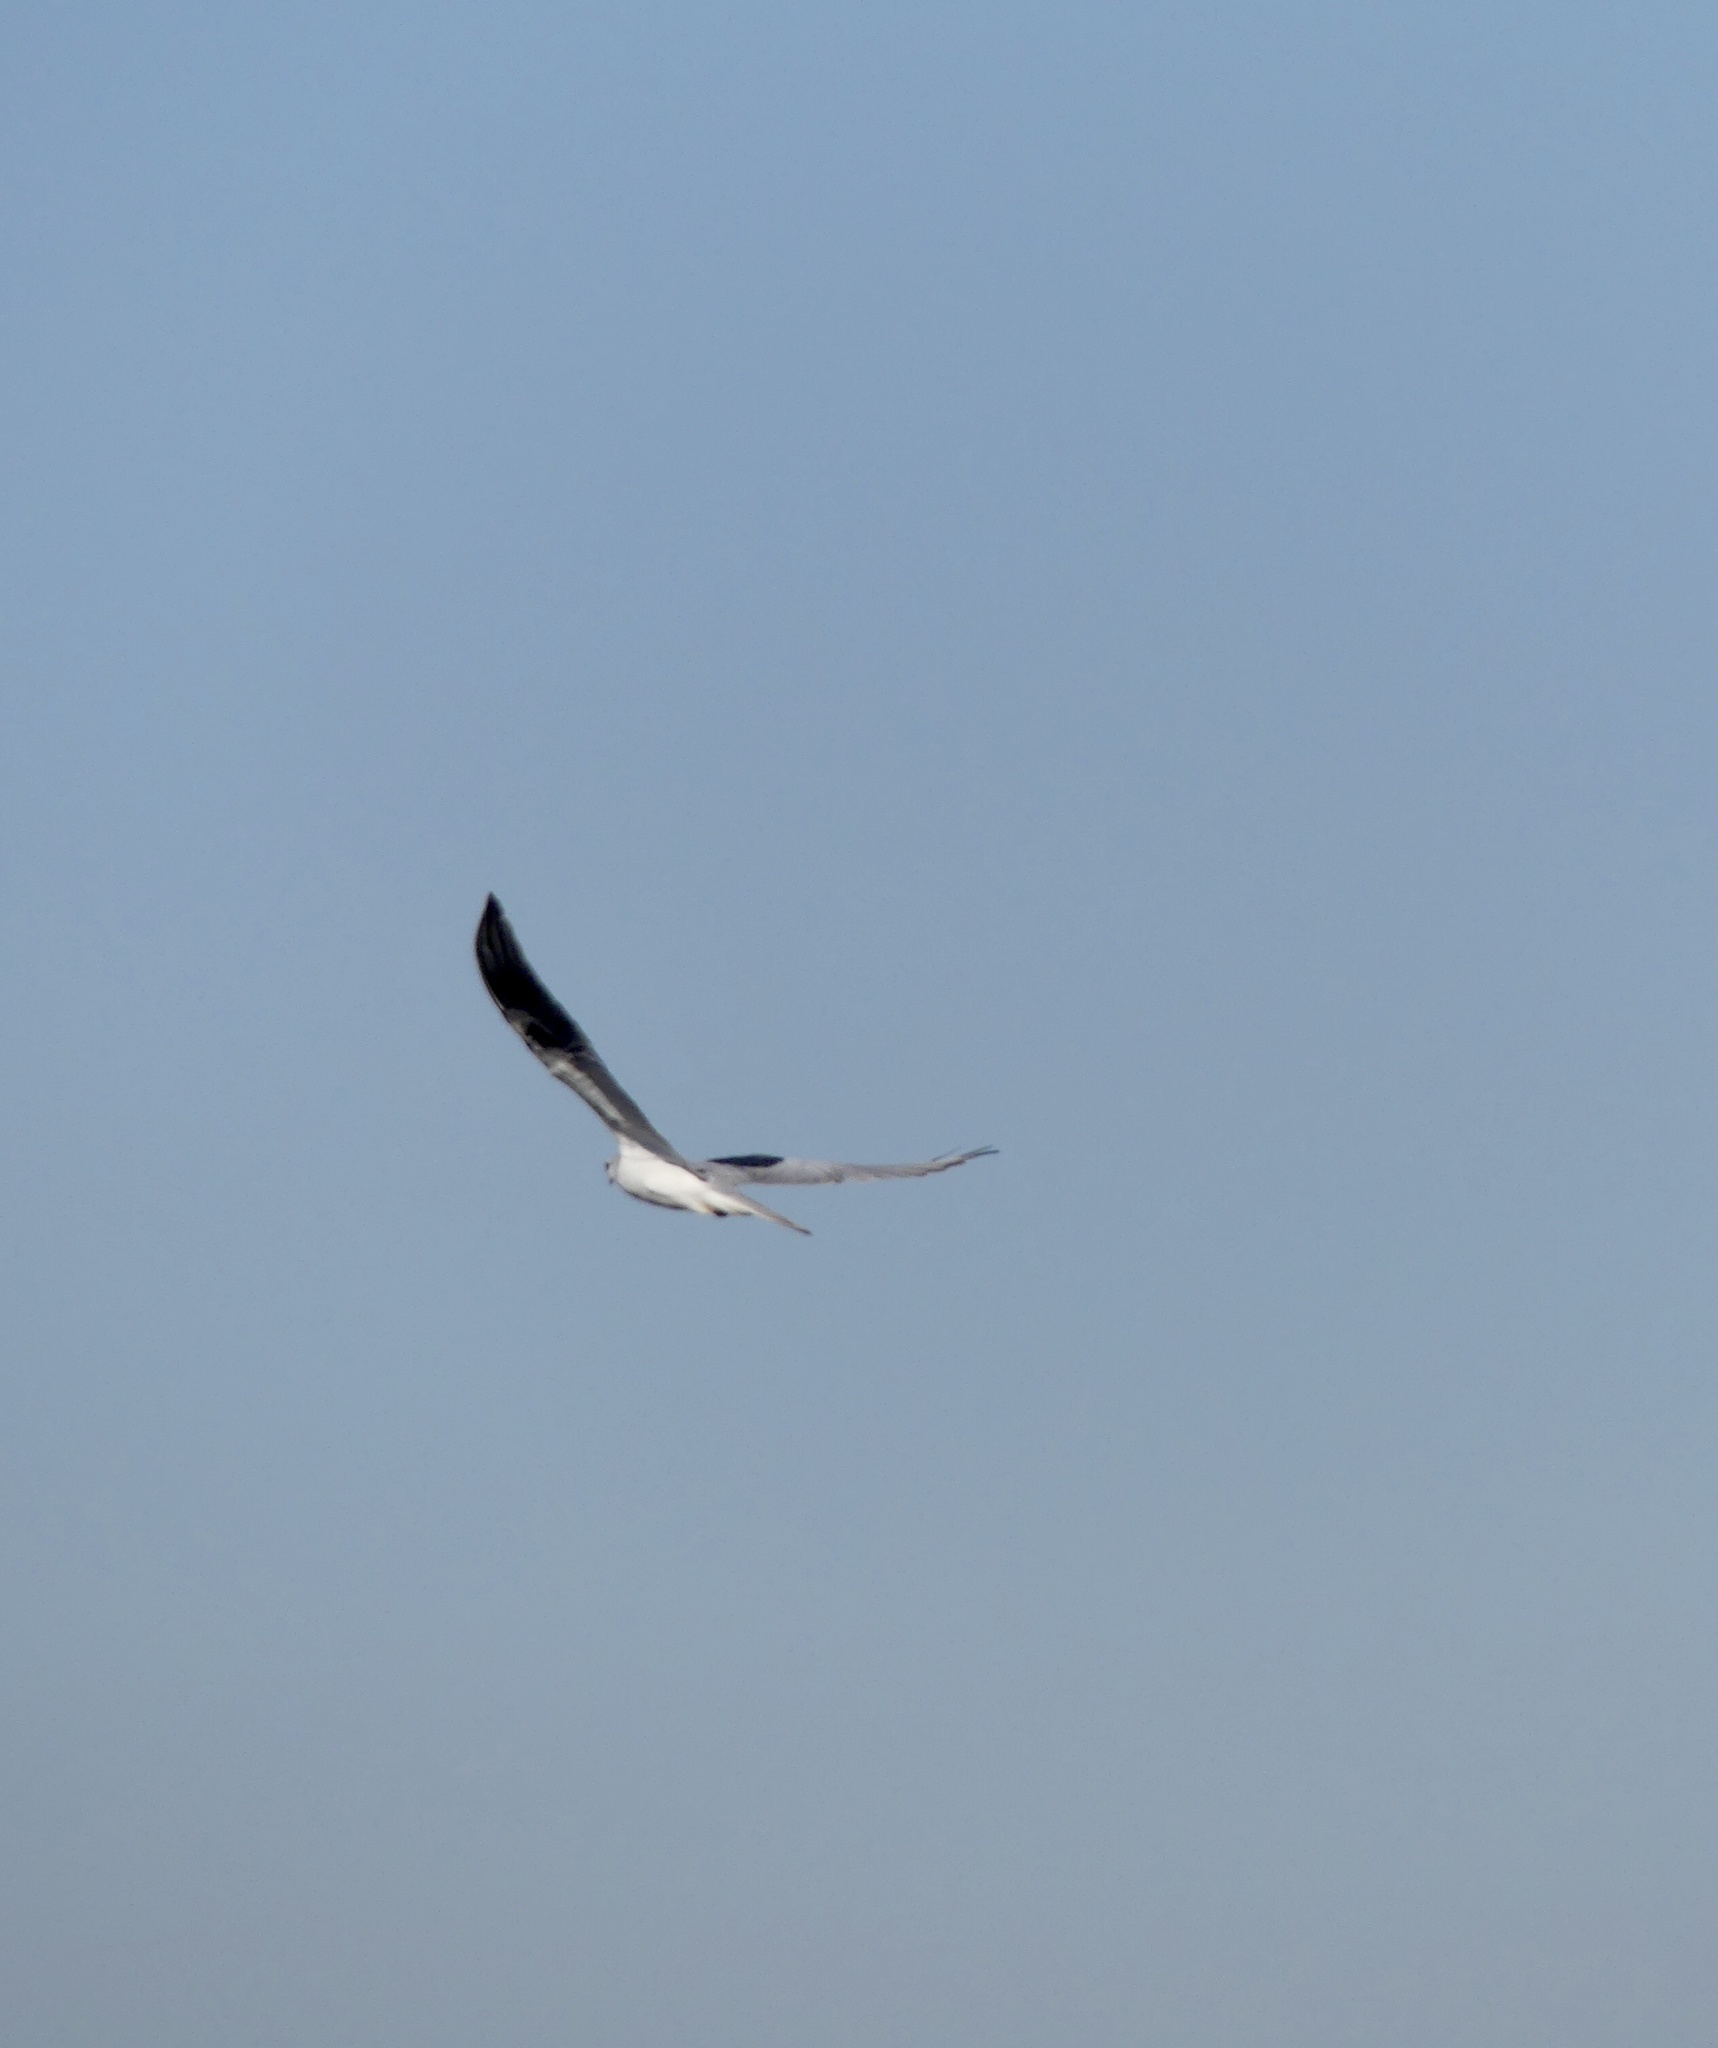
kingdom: Animalia
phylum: Chordata
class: Aves
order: Accipitriformes
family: Accipitridae
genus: Elanus
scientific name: Elanus leucurus
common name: White-tailed kite
